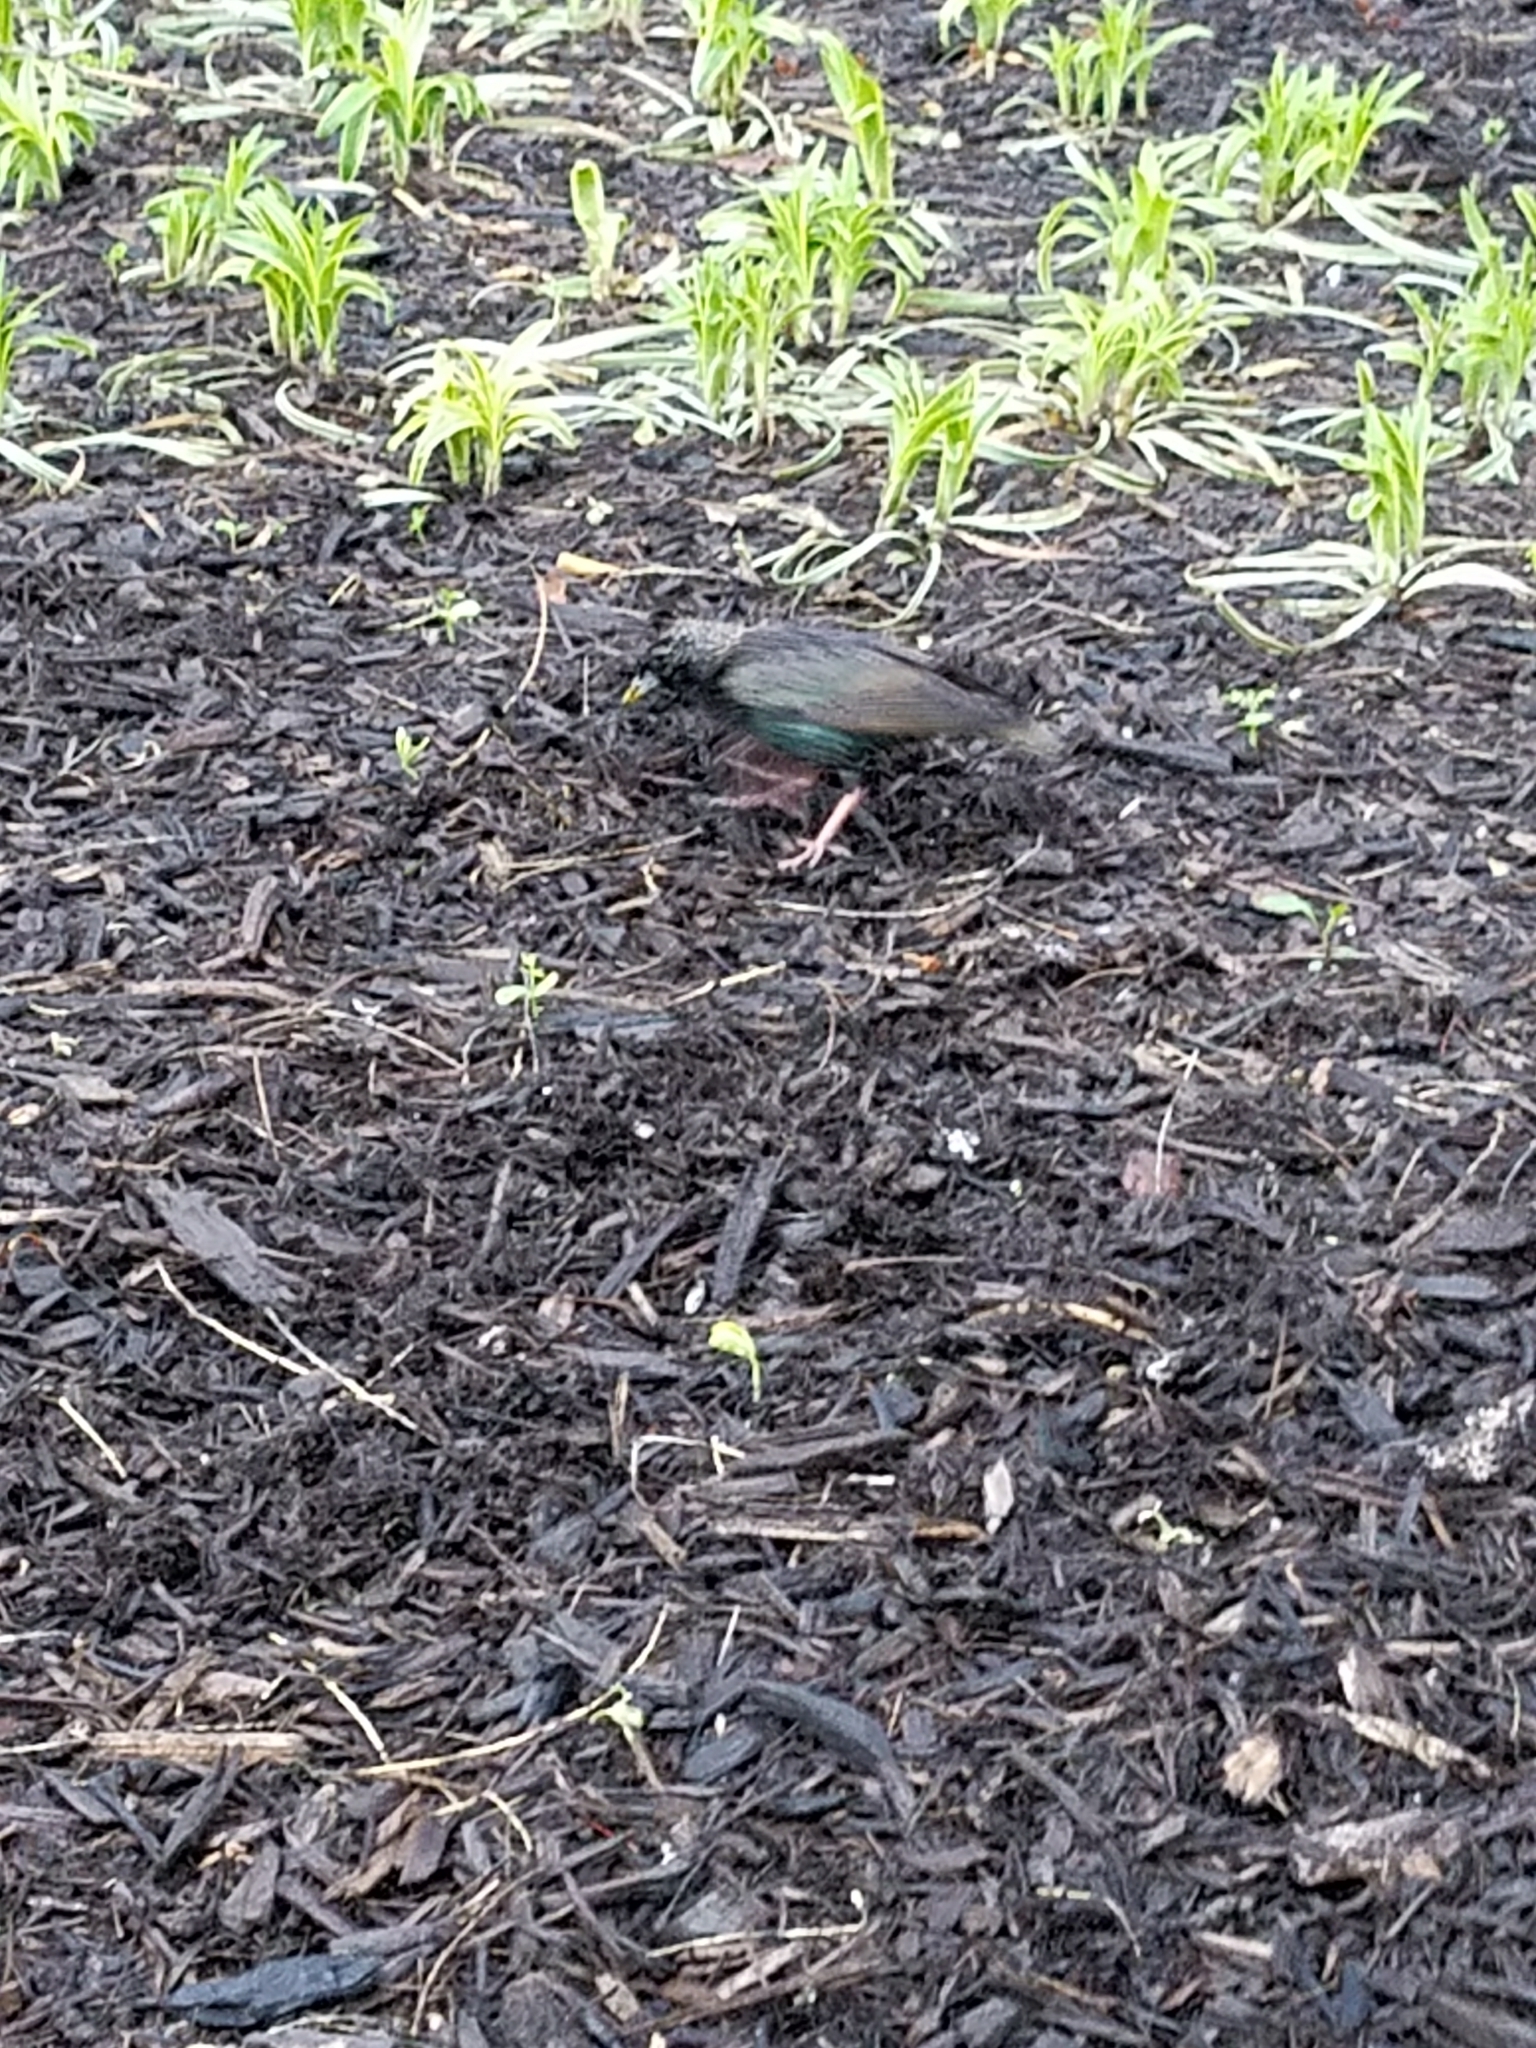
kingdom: Animalia
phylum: Chordata
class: Aves
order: Passeriformes
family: Sturnidae
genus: Sturnus
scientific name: Sturnus vulgaris
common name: Common starling
